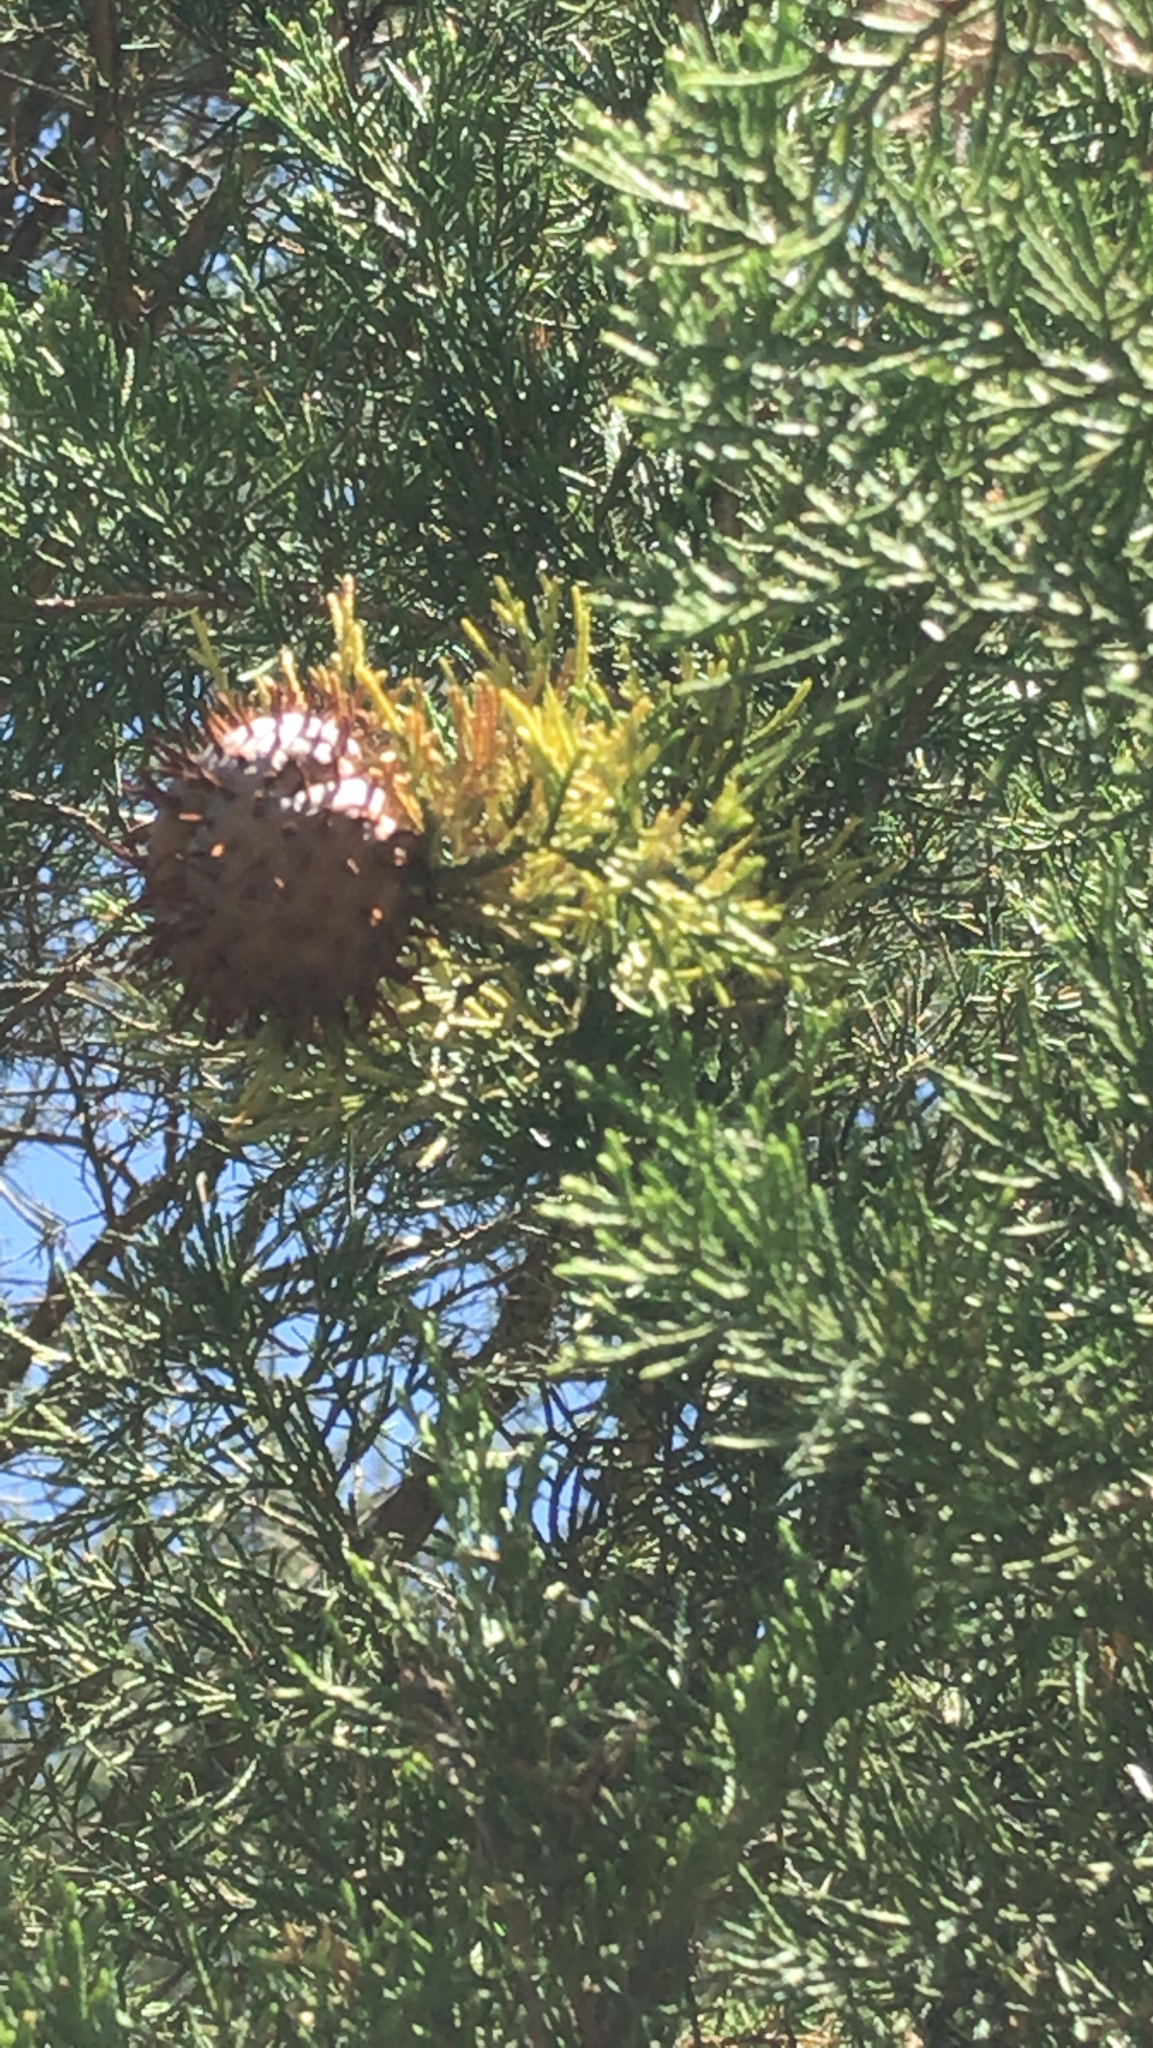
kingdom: Fungi
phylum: Basidiomycota
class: Pucciniomycetes
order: Pucciniales
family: Gymnosporangiaceae
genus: Gymnosporangium
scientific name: Gymnosporangium juniperi-virginianae
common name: Juniper-apple rust
